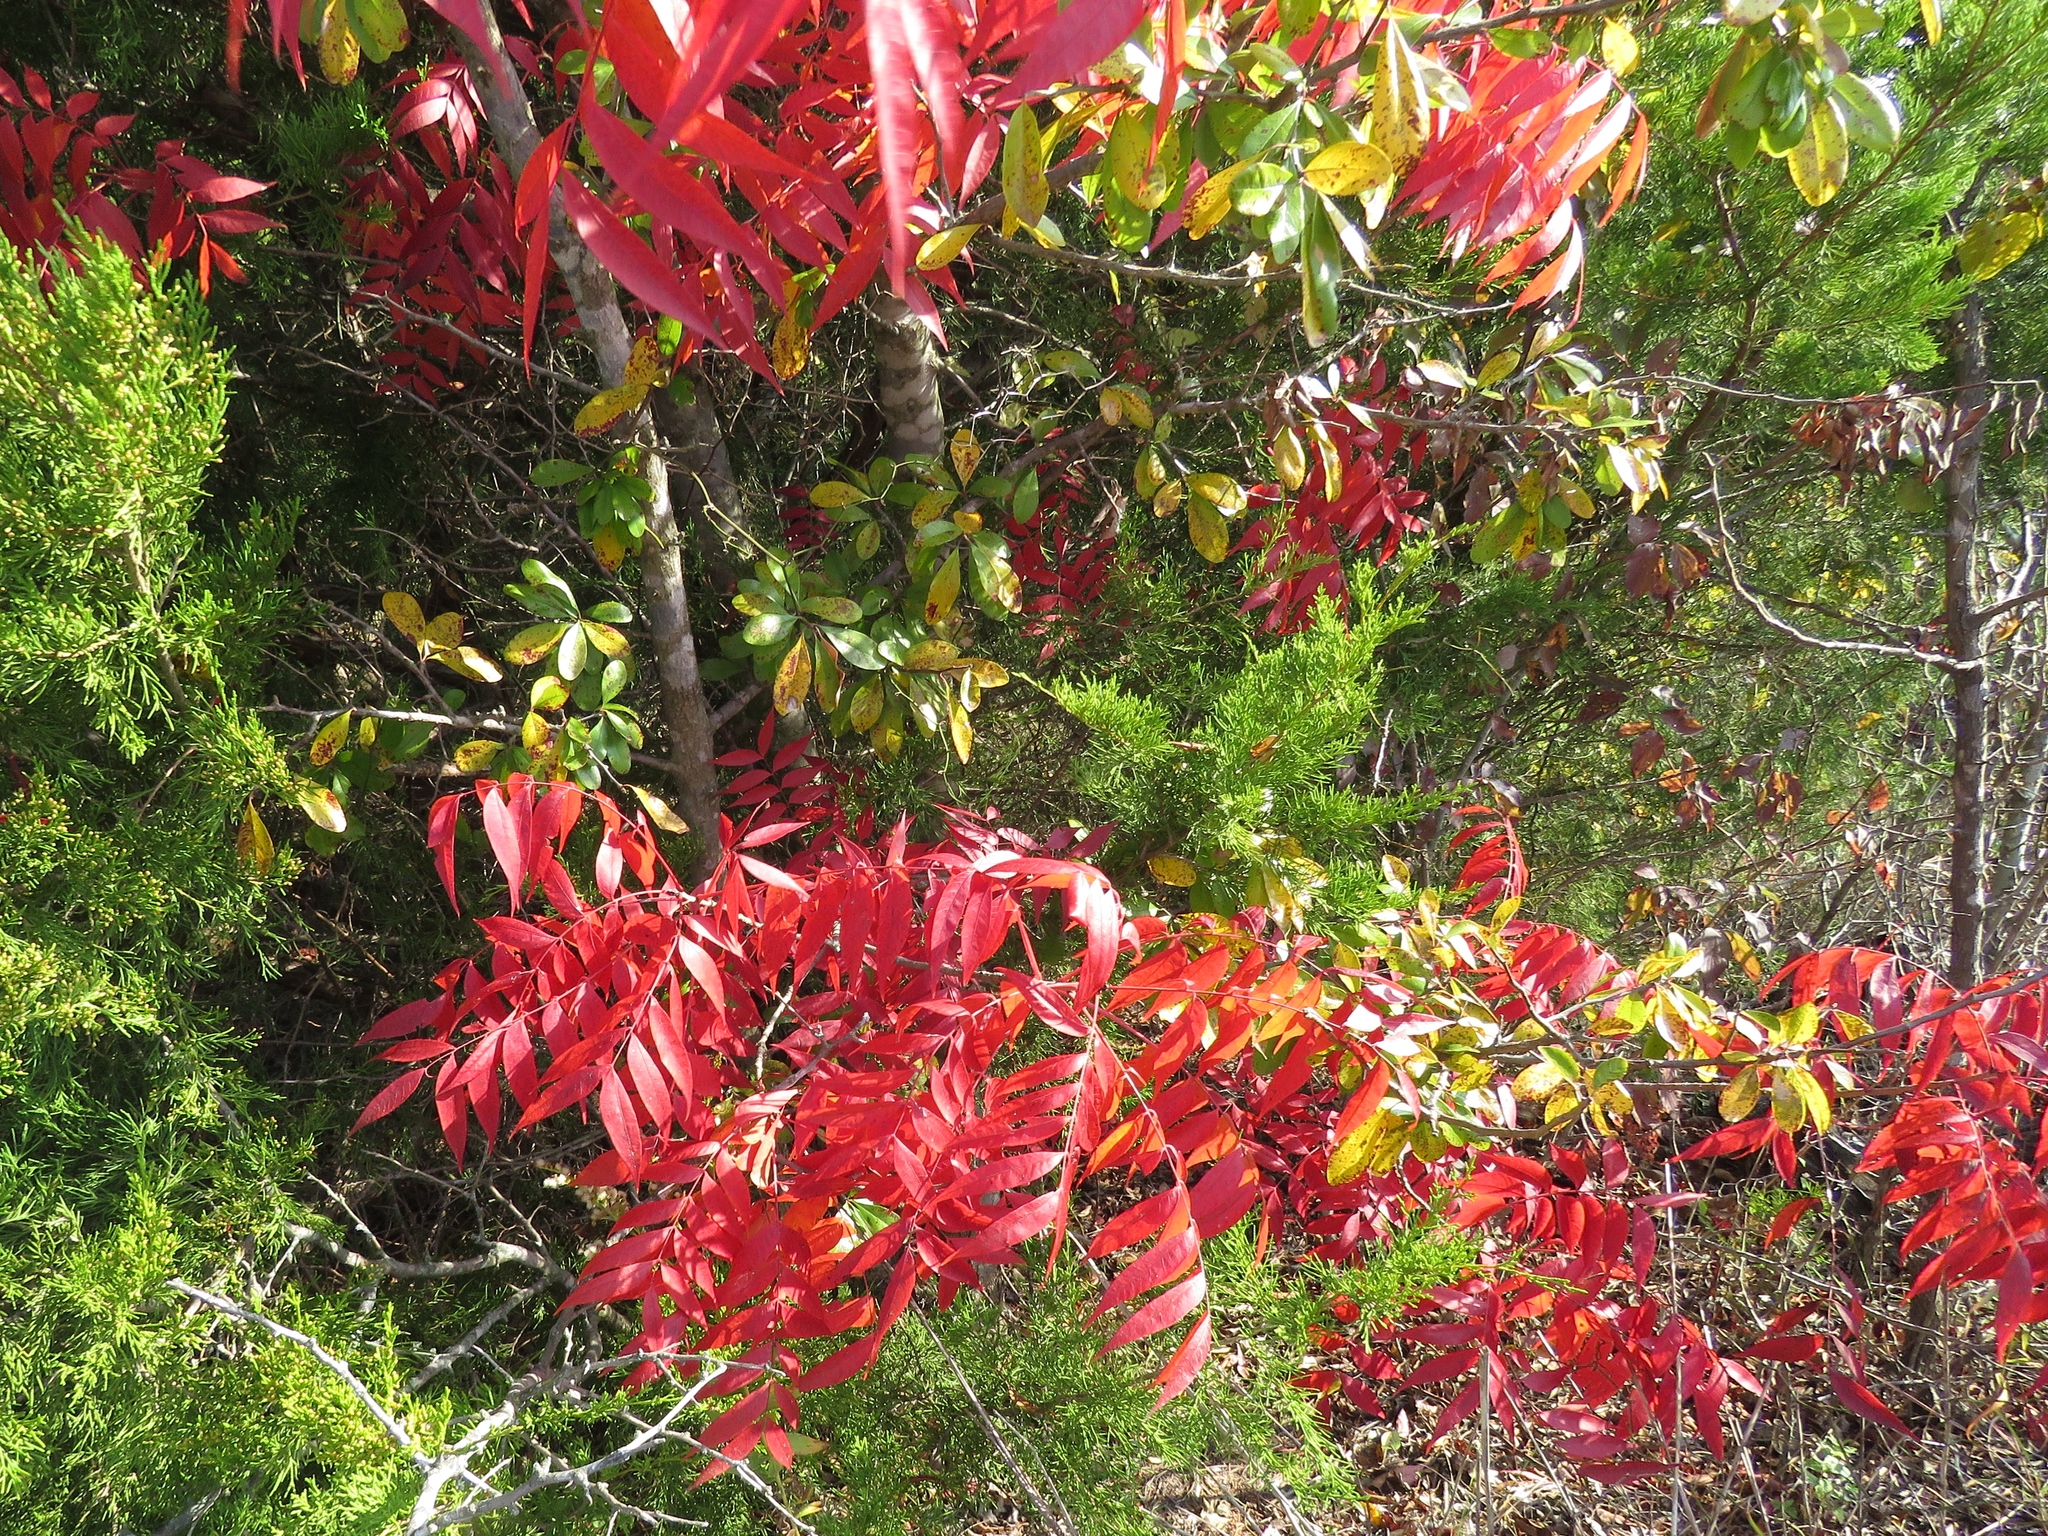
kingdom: Plantae
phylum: Tracheophyta
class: Magnoliopsida
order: Sapindales
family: Anacardiaceae
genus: Pistacia
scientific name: Pistacia chinensis
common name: Chinese pistache
